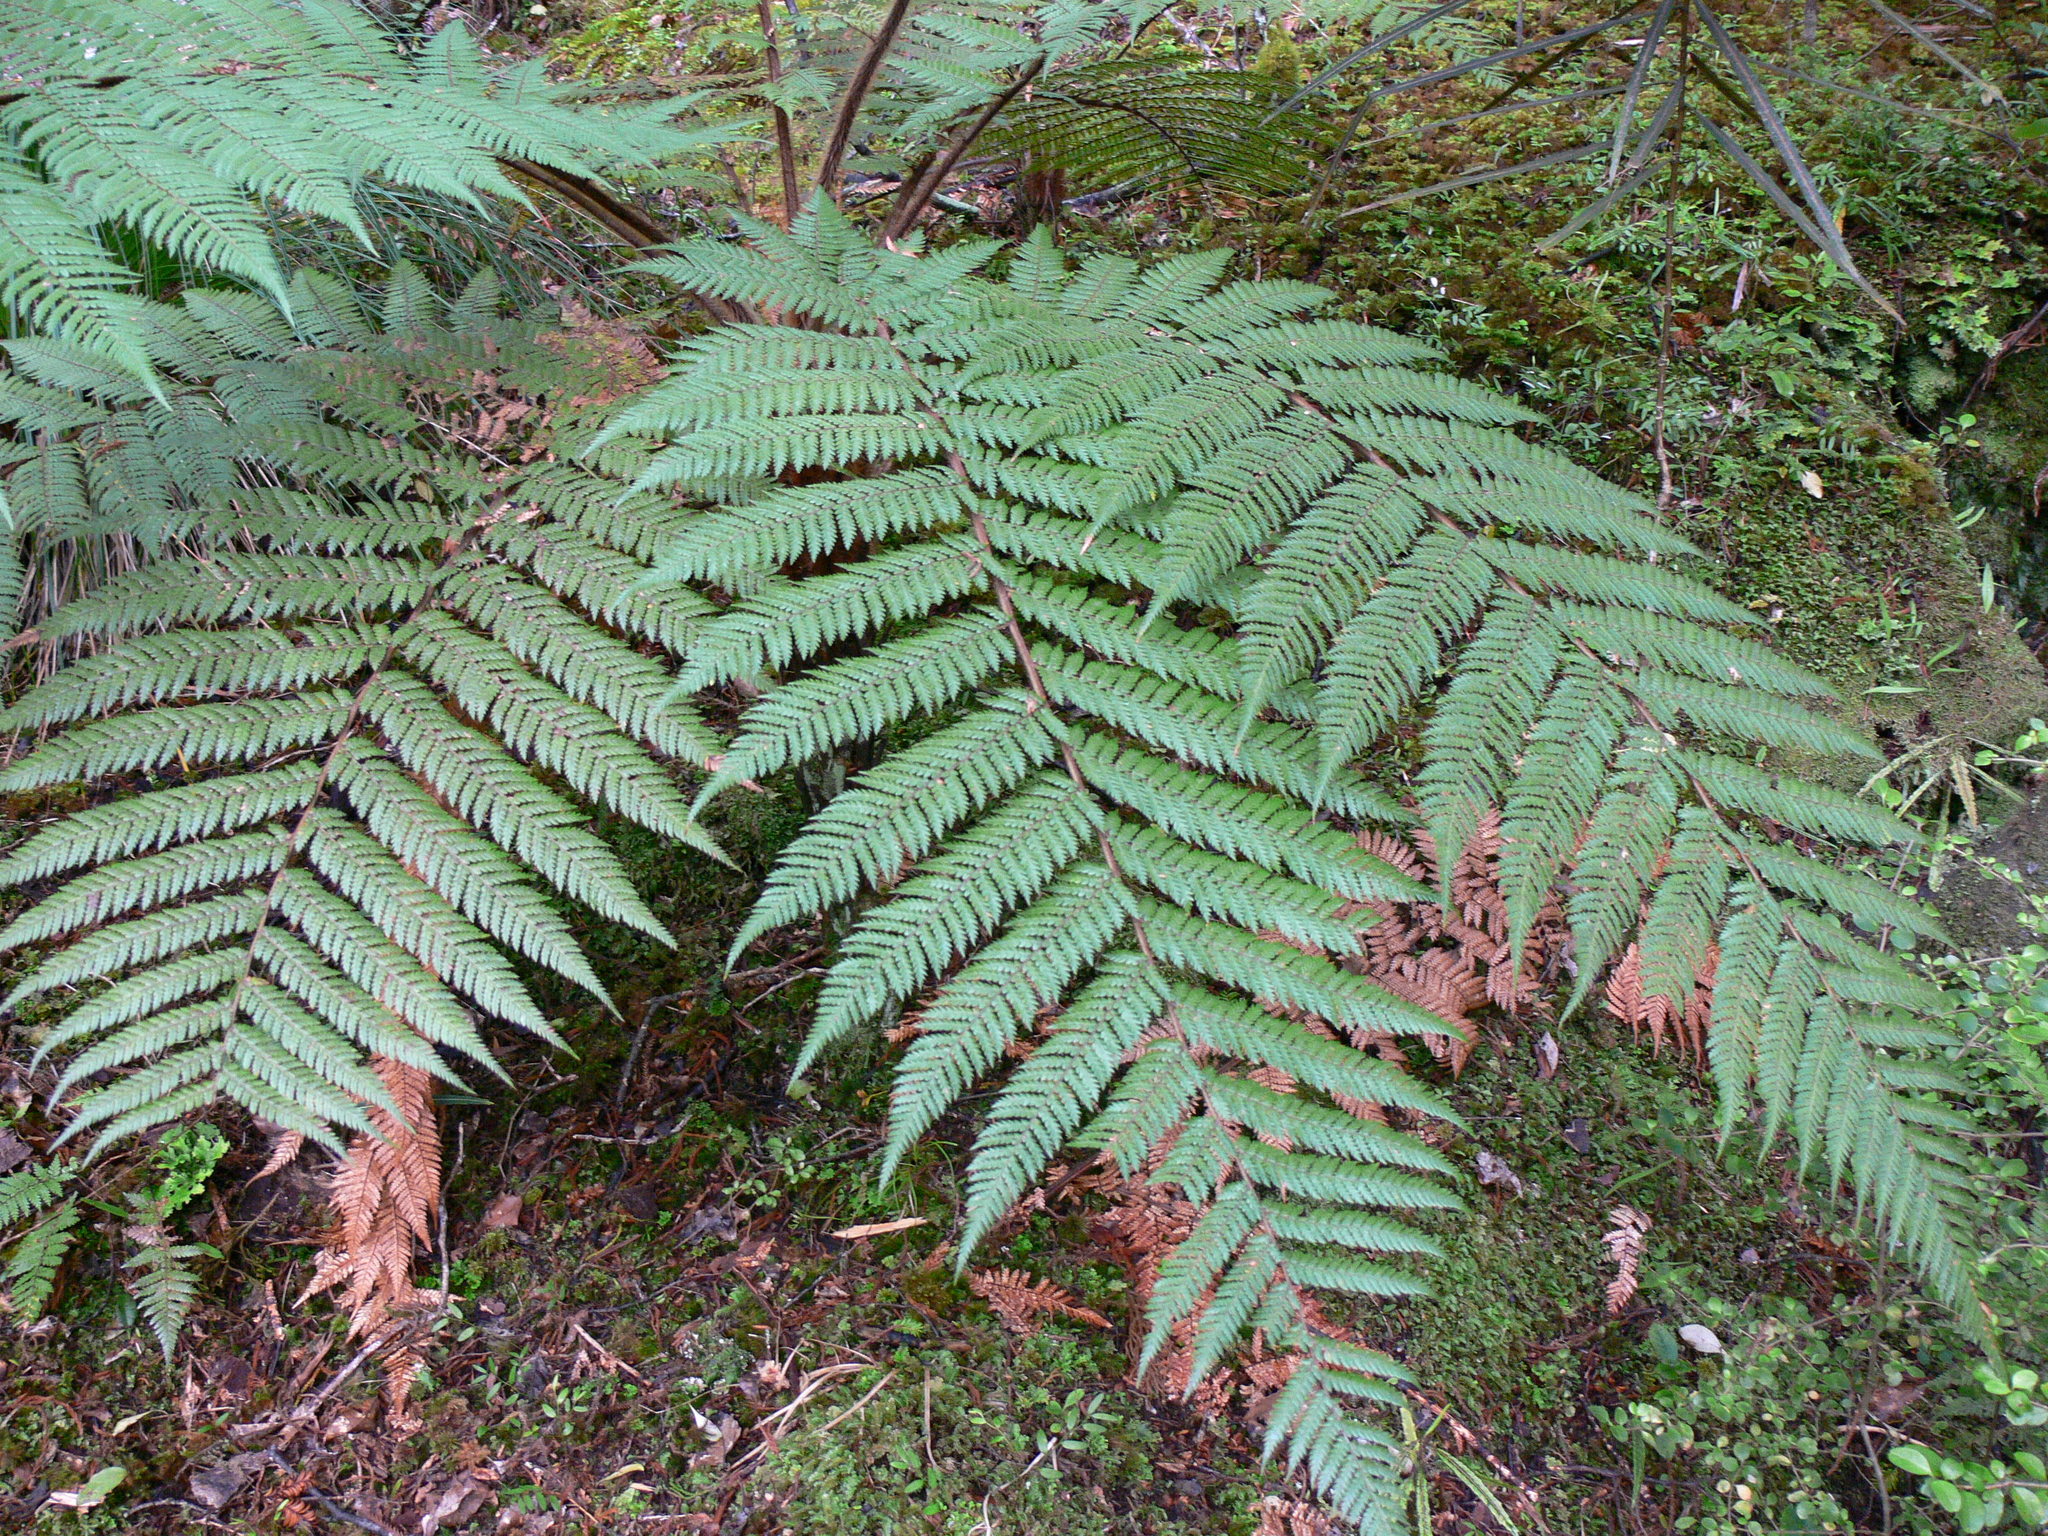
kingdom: Plantae
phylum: Tracheophyta
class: Polypodiopsida
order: Cyatheales
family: Dicksoniaceae
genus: Dicksonia
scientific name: Dicksonia squarrosa
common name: Hard treefern
